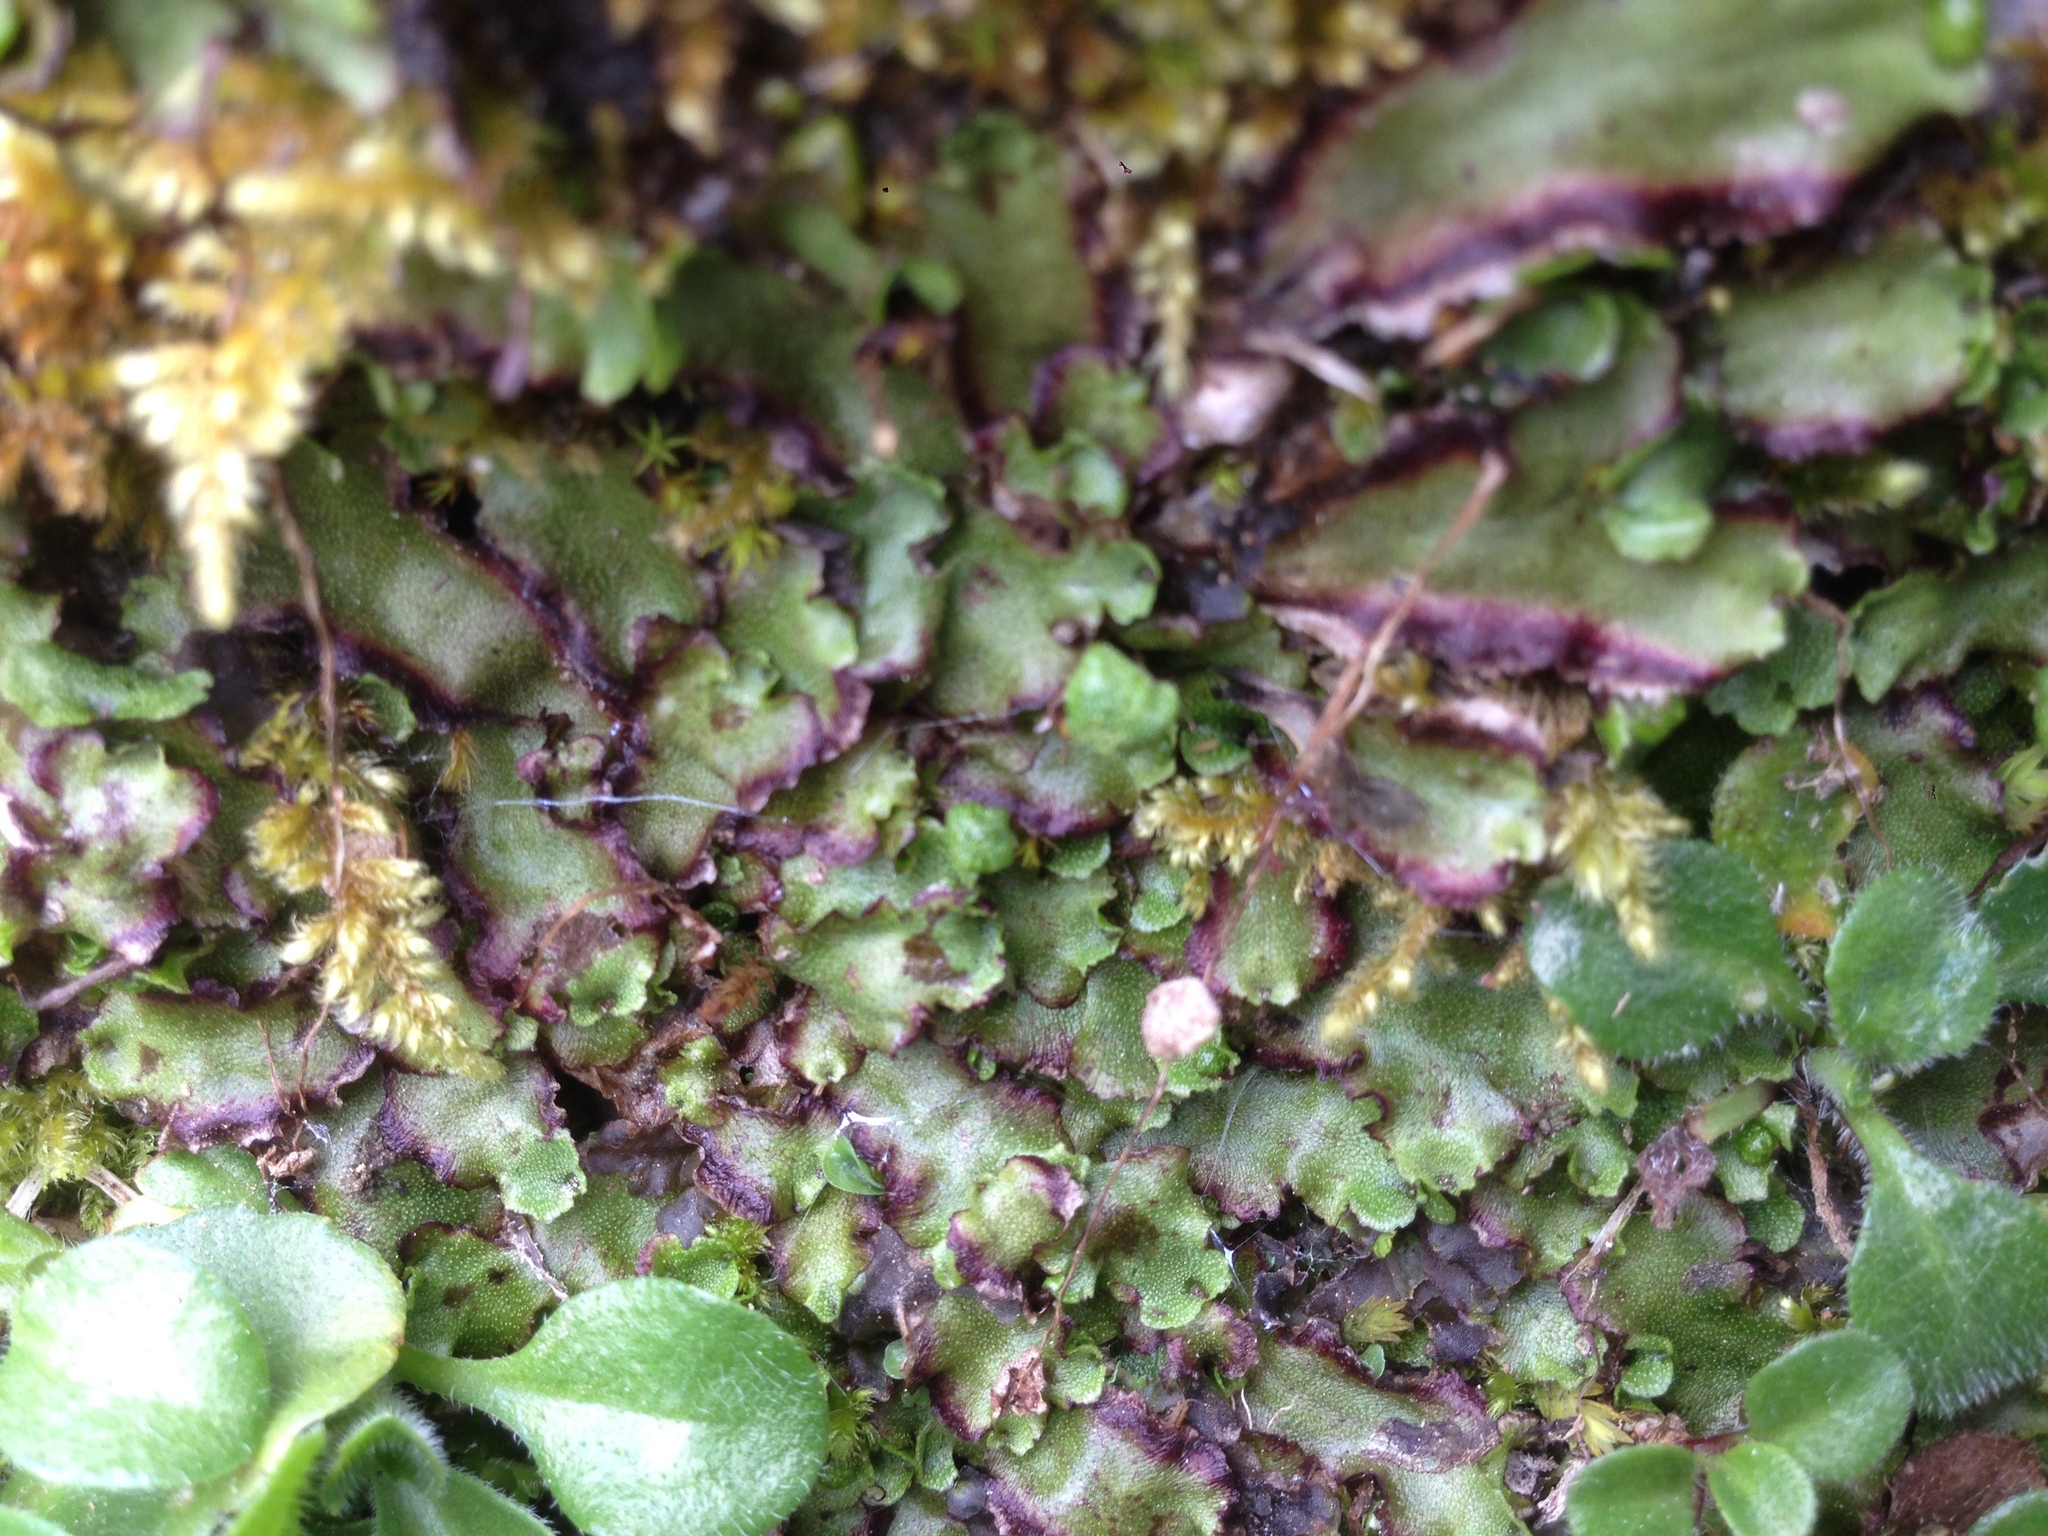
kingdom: Plantae
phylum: Marchantiophyta
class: Marchantiopsida
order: Marchantiales
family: Marchantiaceae
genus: Marchantia
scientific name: Marchantia quadrata
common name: Narrow mushroom-headed liverwort
